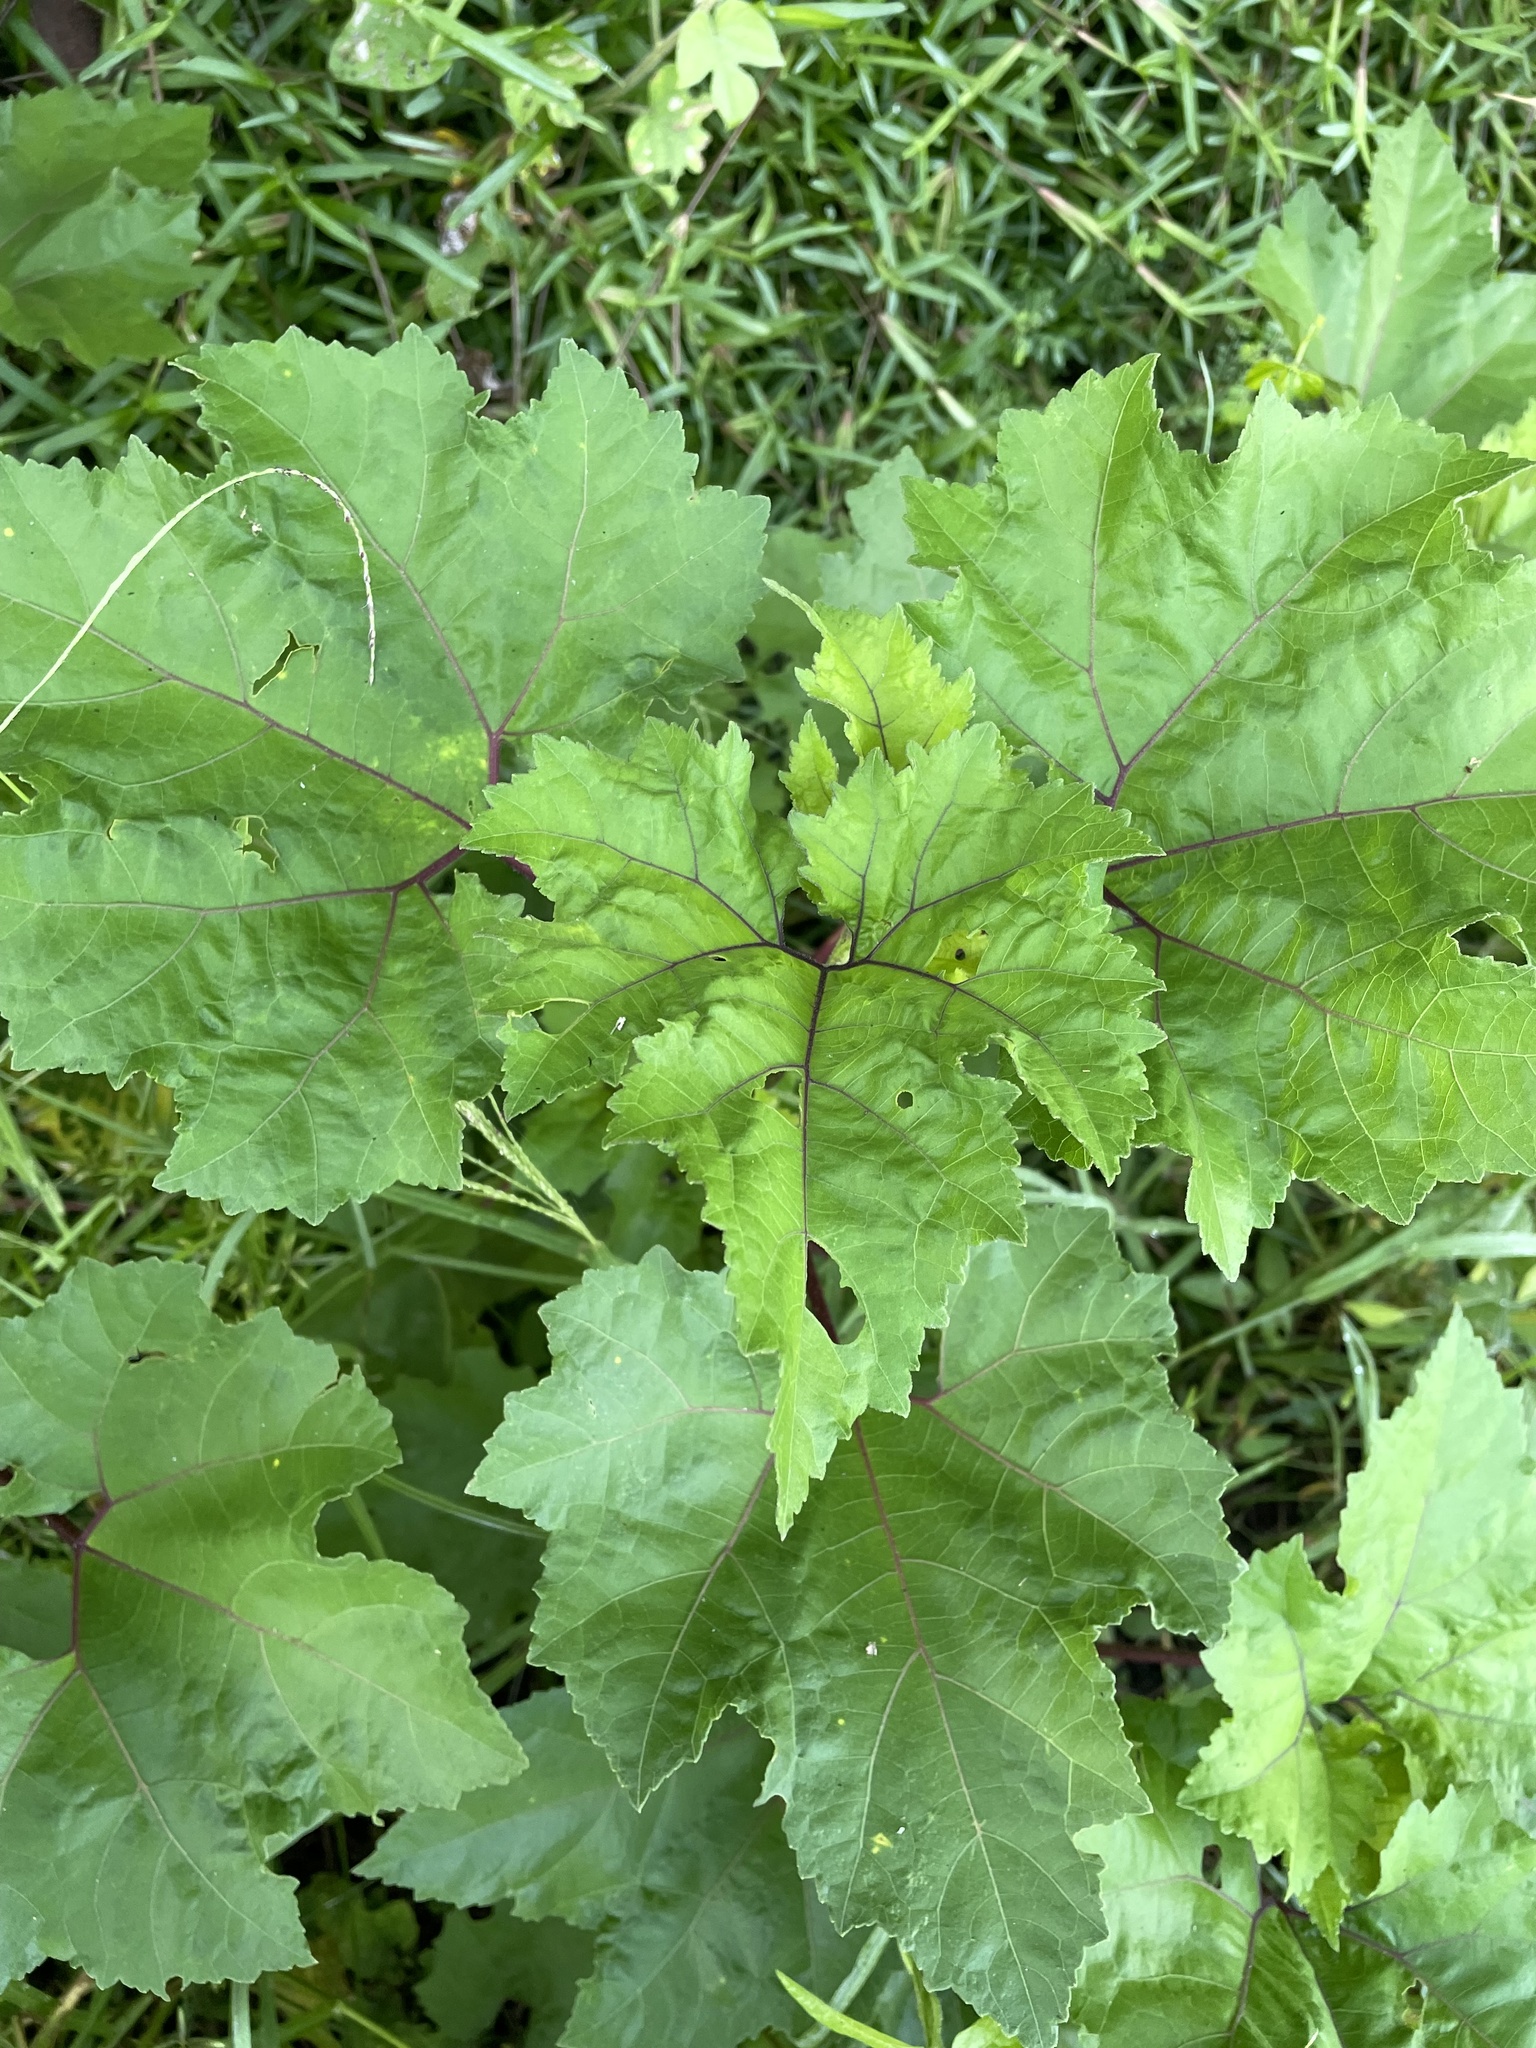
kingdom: Plantae
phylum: Tracheophyta
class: Magnoliopsida
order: Asterales
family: Asteraceae
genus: Xanthium
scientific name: Xanthium strumarium
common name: Rough cocklebur
